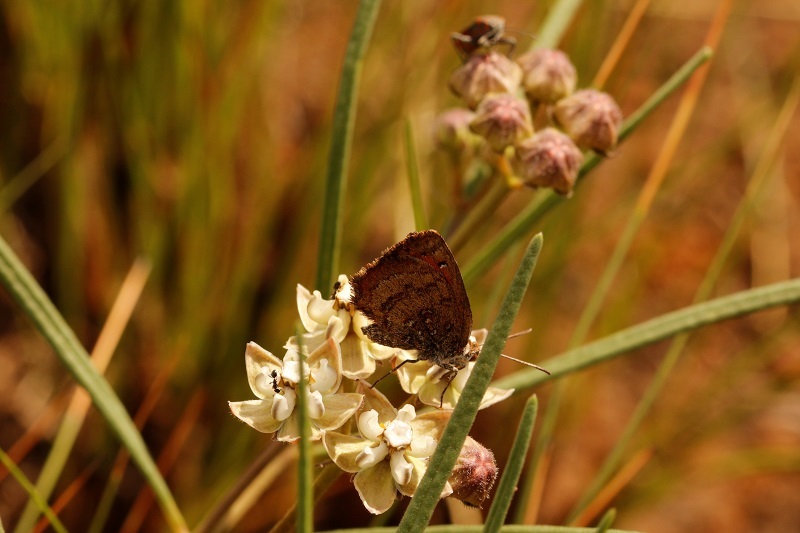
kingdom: Animalia
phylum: Arthropoda
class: Insecta
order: Lepidoptera
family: Lycaenidae
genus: Aloeides
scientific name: Aloeides swanepoeli
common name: Swanepoel's copper
